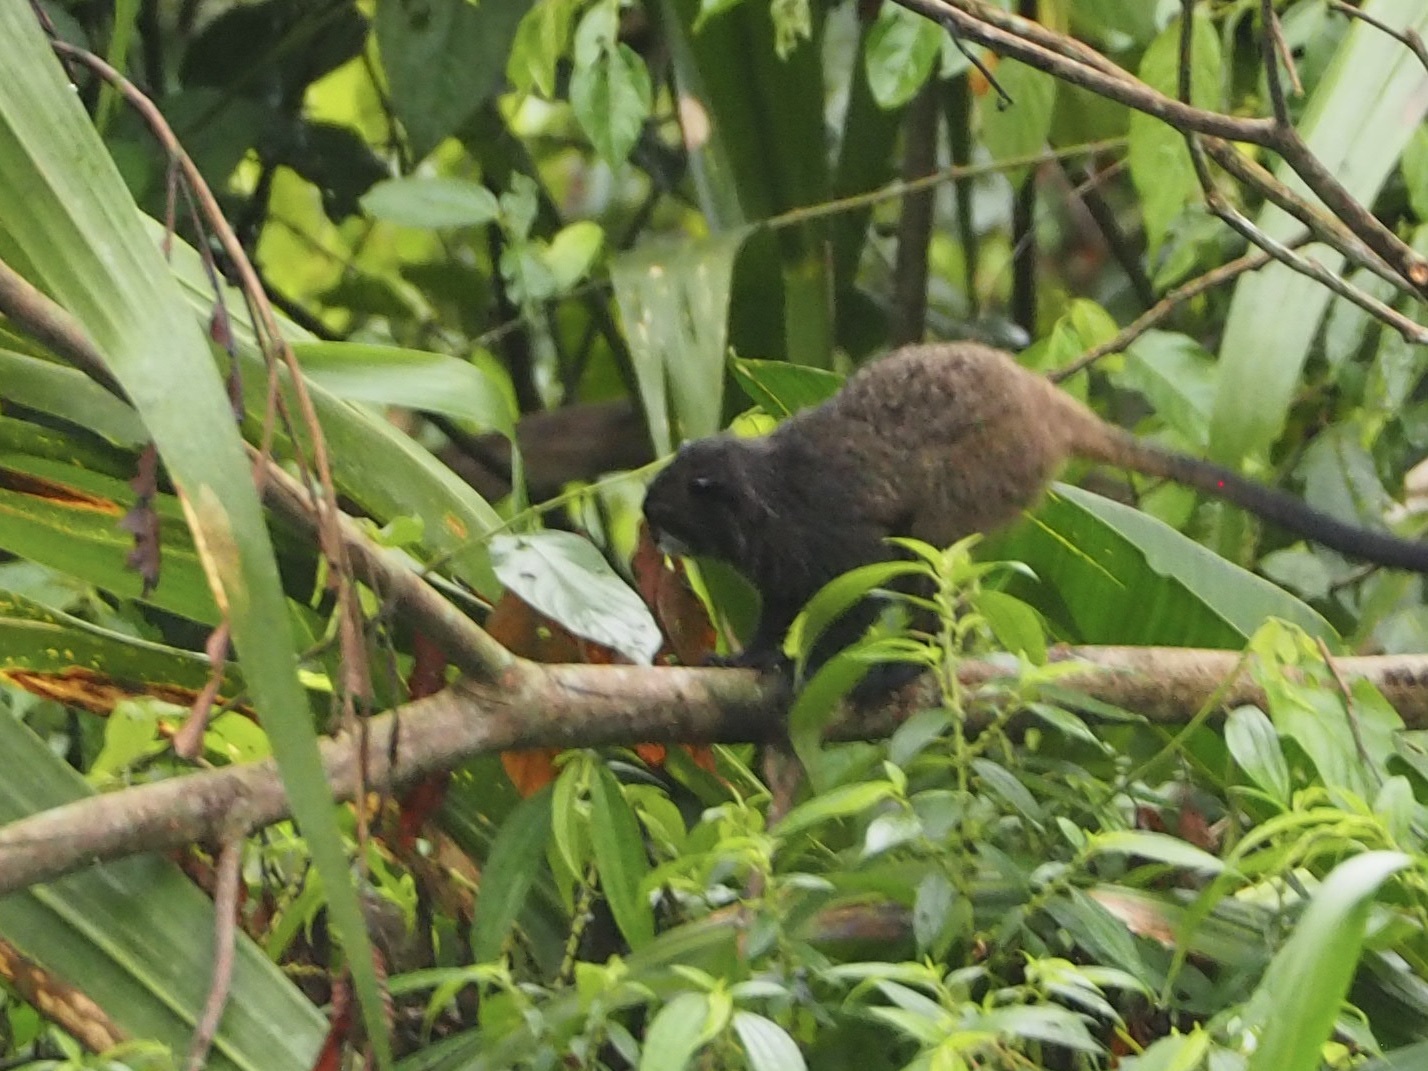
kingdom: Animalia
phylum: Chordata
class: Mammalia
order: Primates
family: Callitrichidae
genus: Leontocebus
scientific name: Leontocebus nigricollis
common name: Black-mantled tamarin
